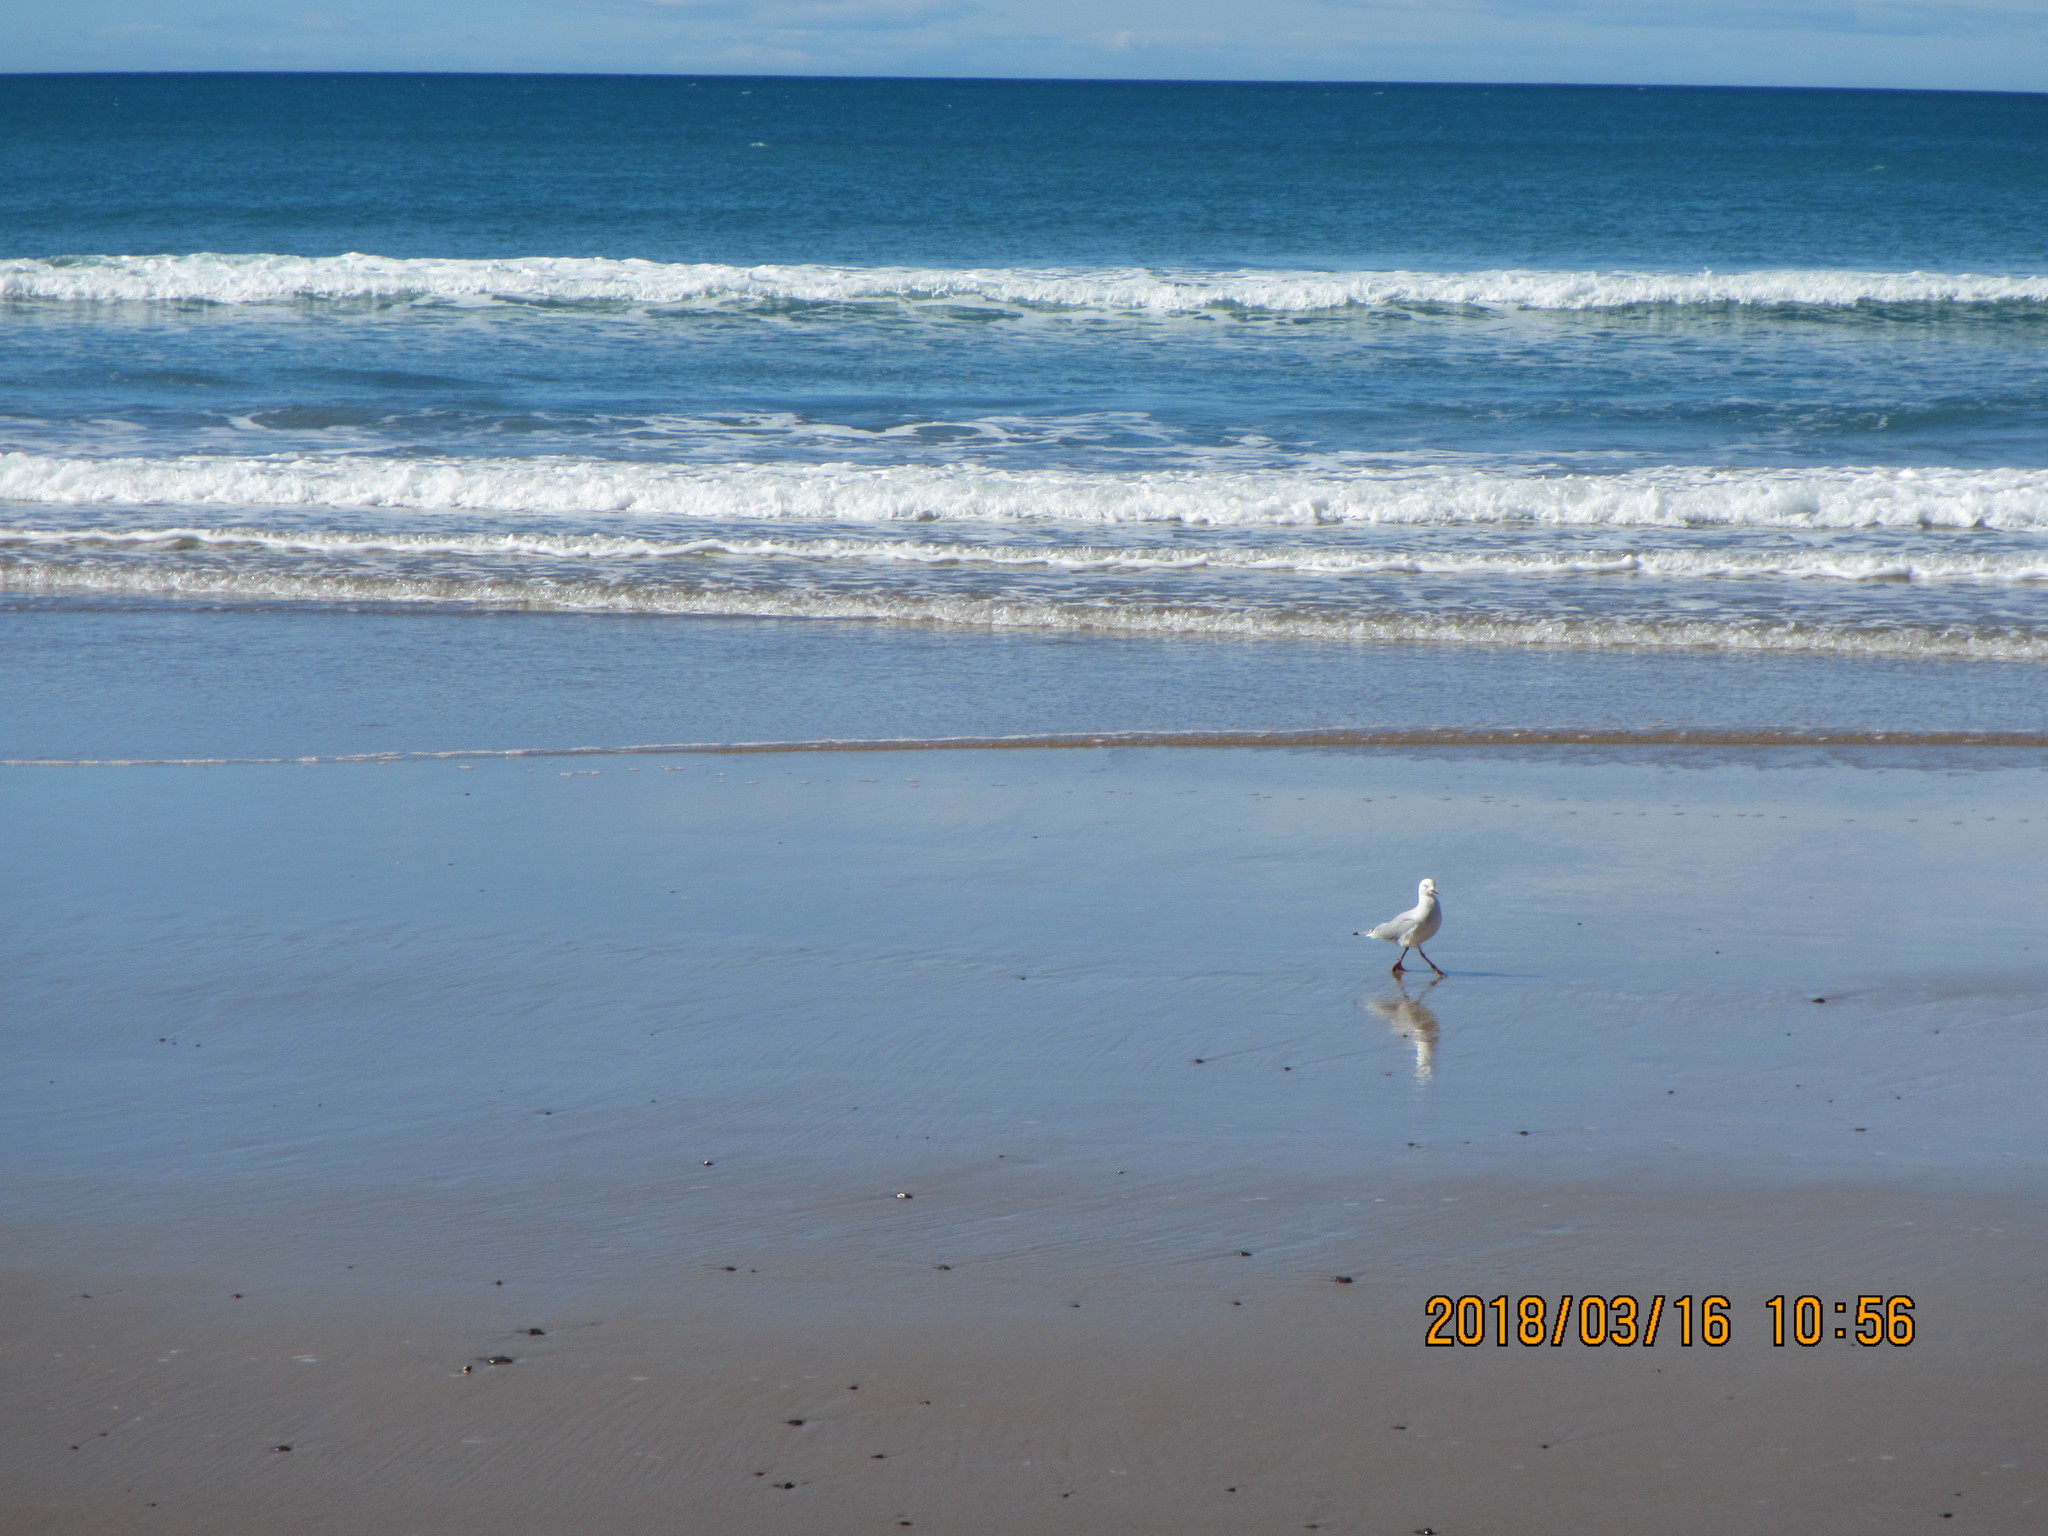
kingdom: Animalia
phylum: Chordata
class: Aves
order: Charadriiformes
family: Laridae
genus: Chroicocephalus
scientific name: Chroicocephalus novaehollandiae
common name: Silver gull
